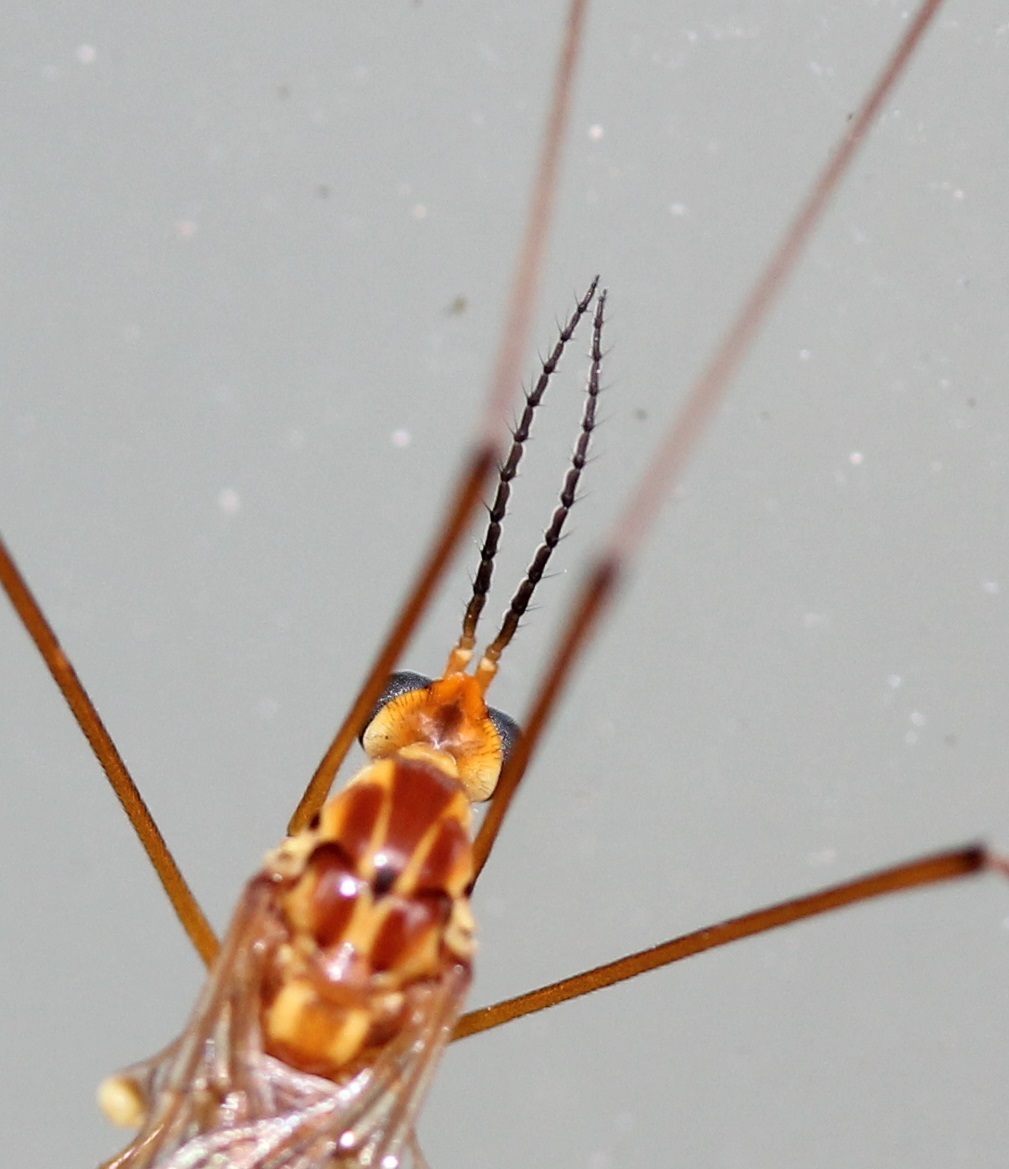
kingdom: Animalia
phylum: Arthropoda
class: Insecta
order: Diptera
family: Tipulidae
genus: Nephrotoma
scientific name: Nephrotoma ferruginea
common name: Ferruginous tiger crane fly
